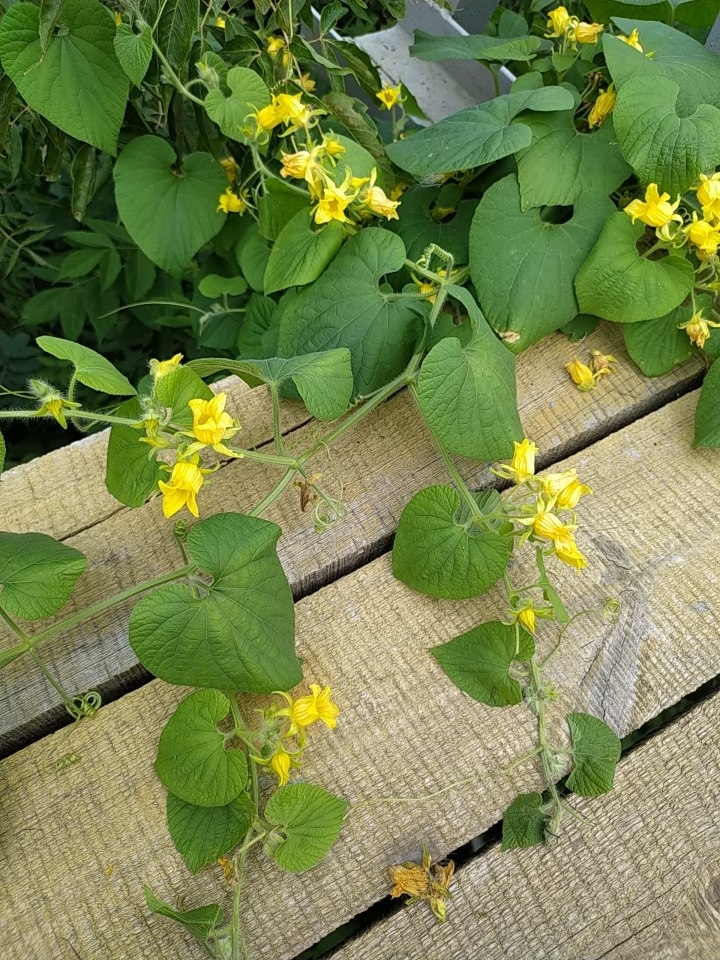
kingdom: Plantae
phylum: Tracheophyta
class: Magnoliopsida
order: Cucurbitales
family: Cucurbitaceae
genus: Thladiantha
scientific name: Thladiantha dubia
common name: Manchu tubergourd
